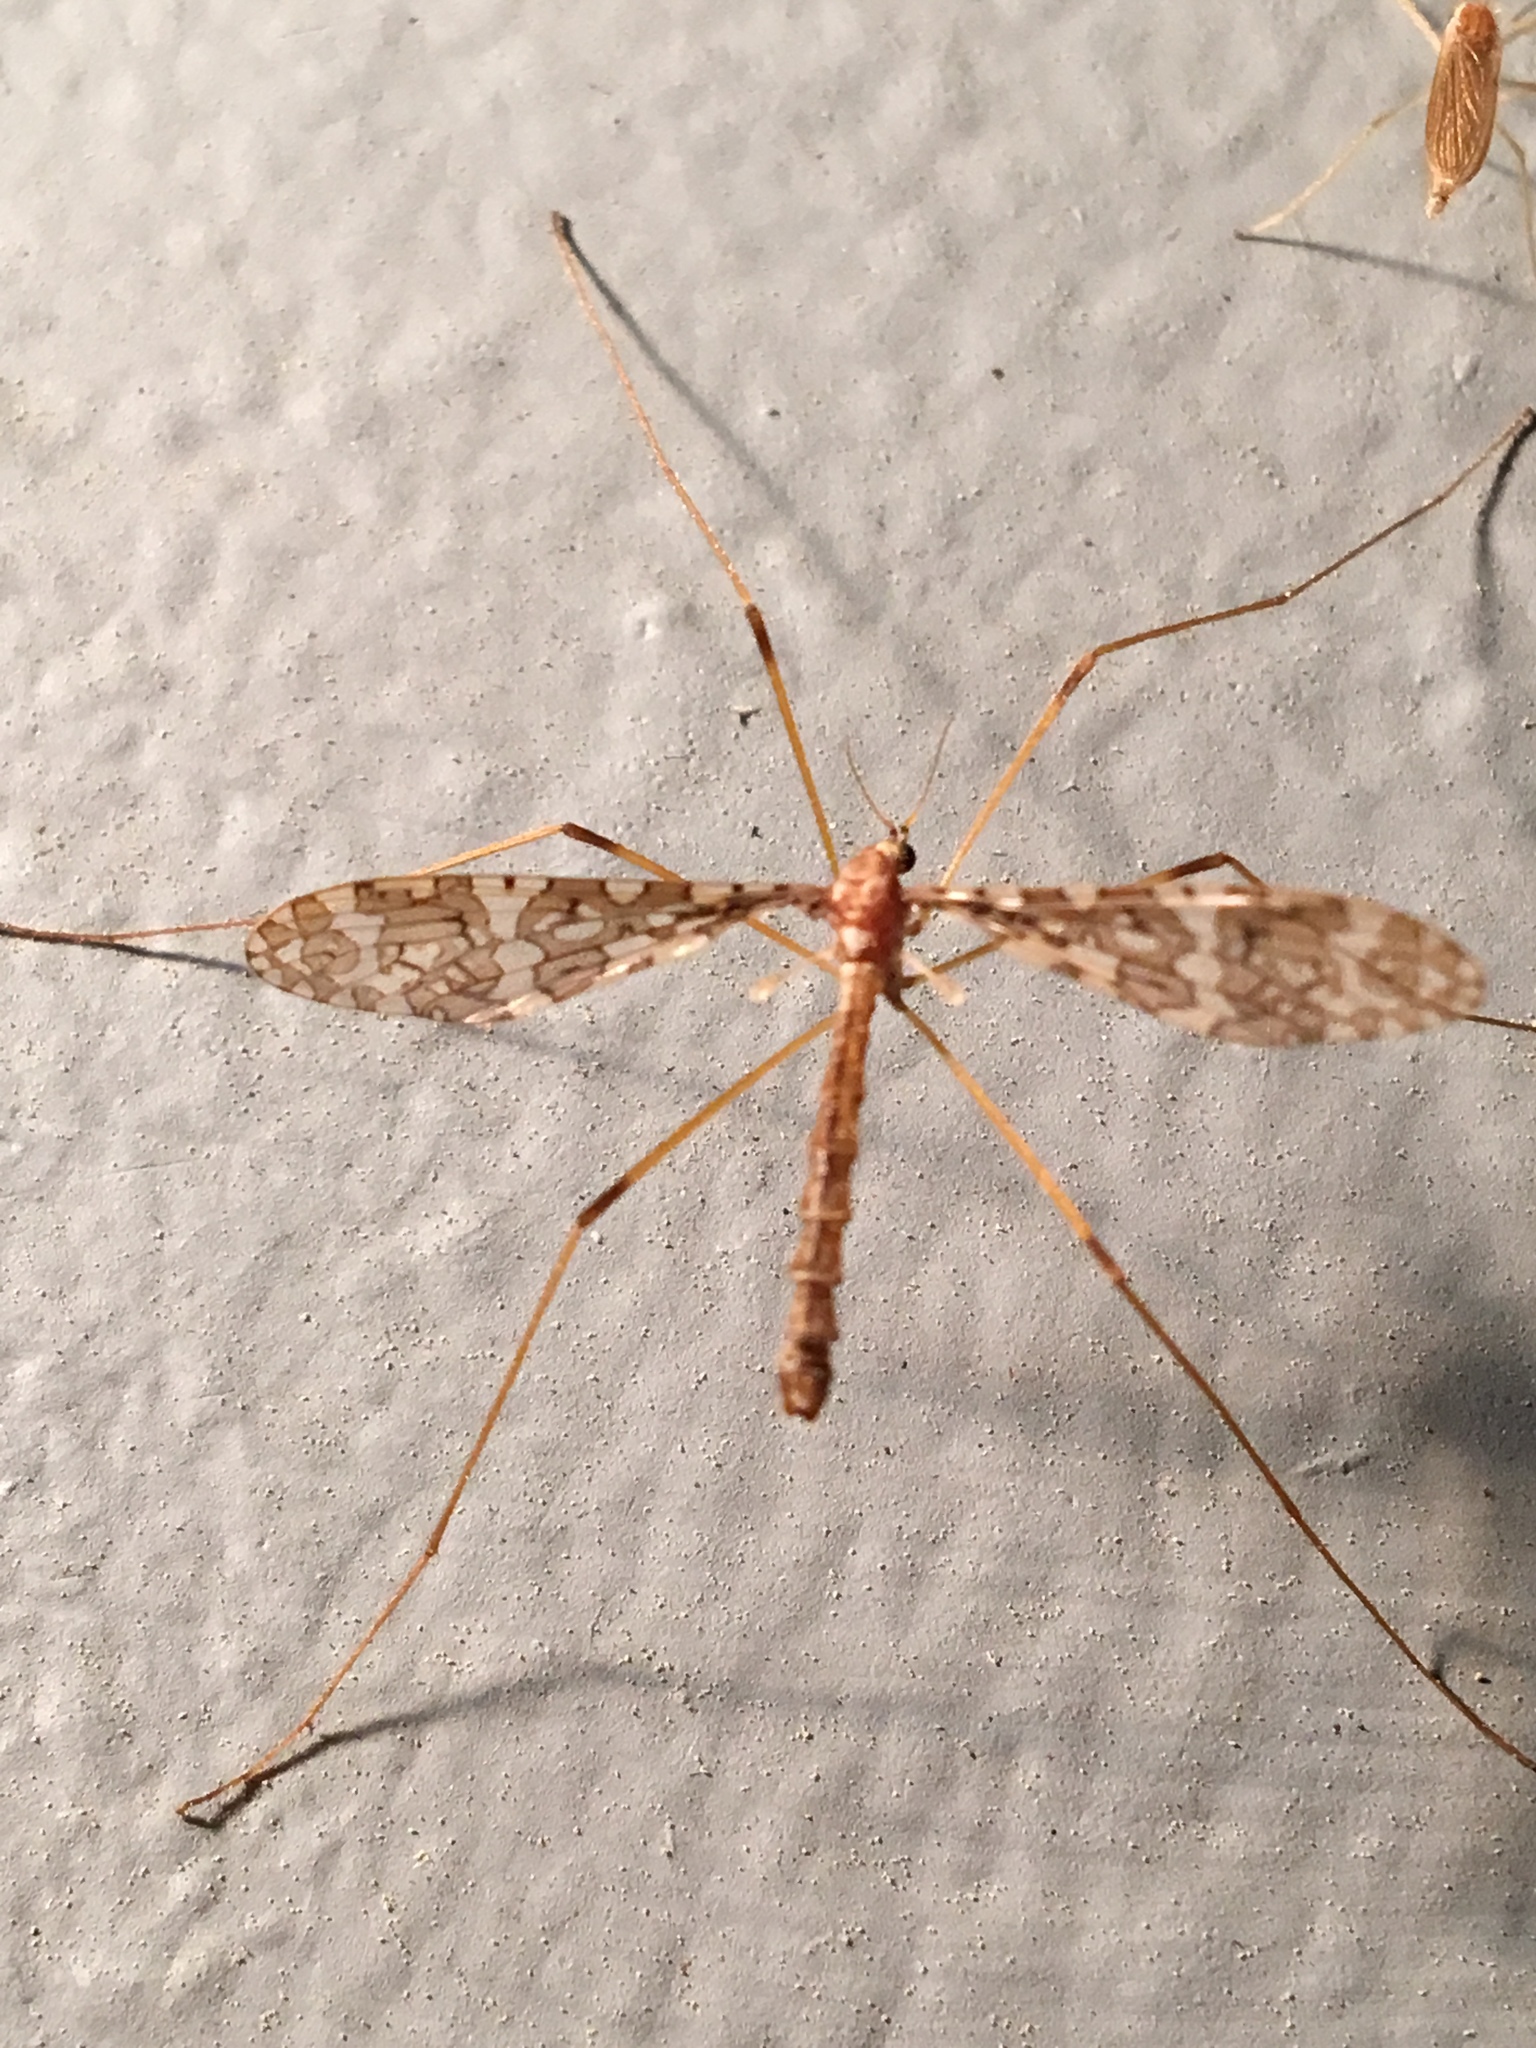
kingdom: Animalia
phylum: Arthropoda
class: Insecta
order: Diptera
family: Limoniidae
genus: Epiphragma
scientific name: Epiphragma fasciapenne
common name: Band-winged crane fly
